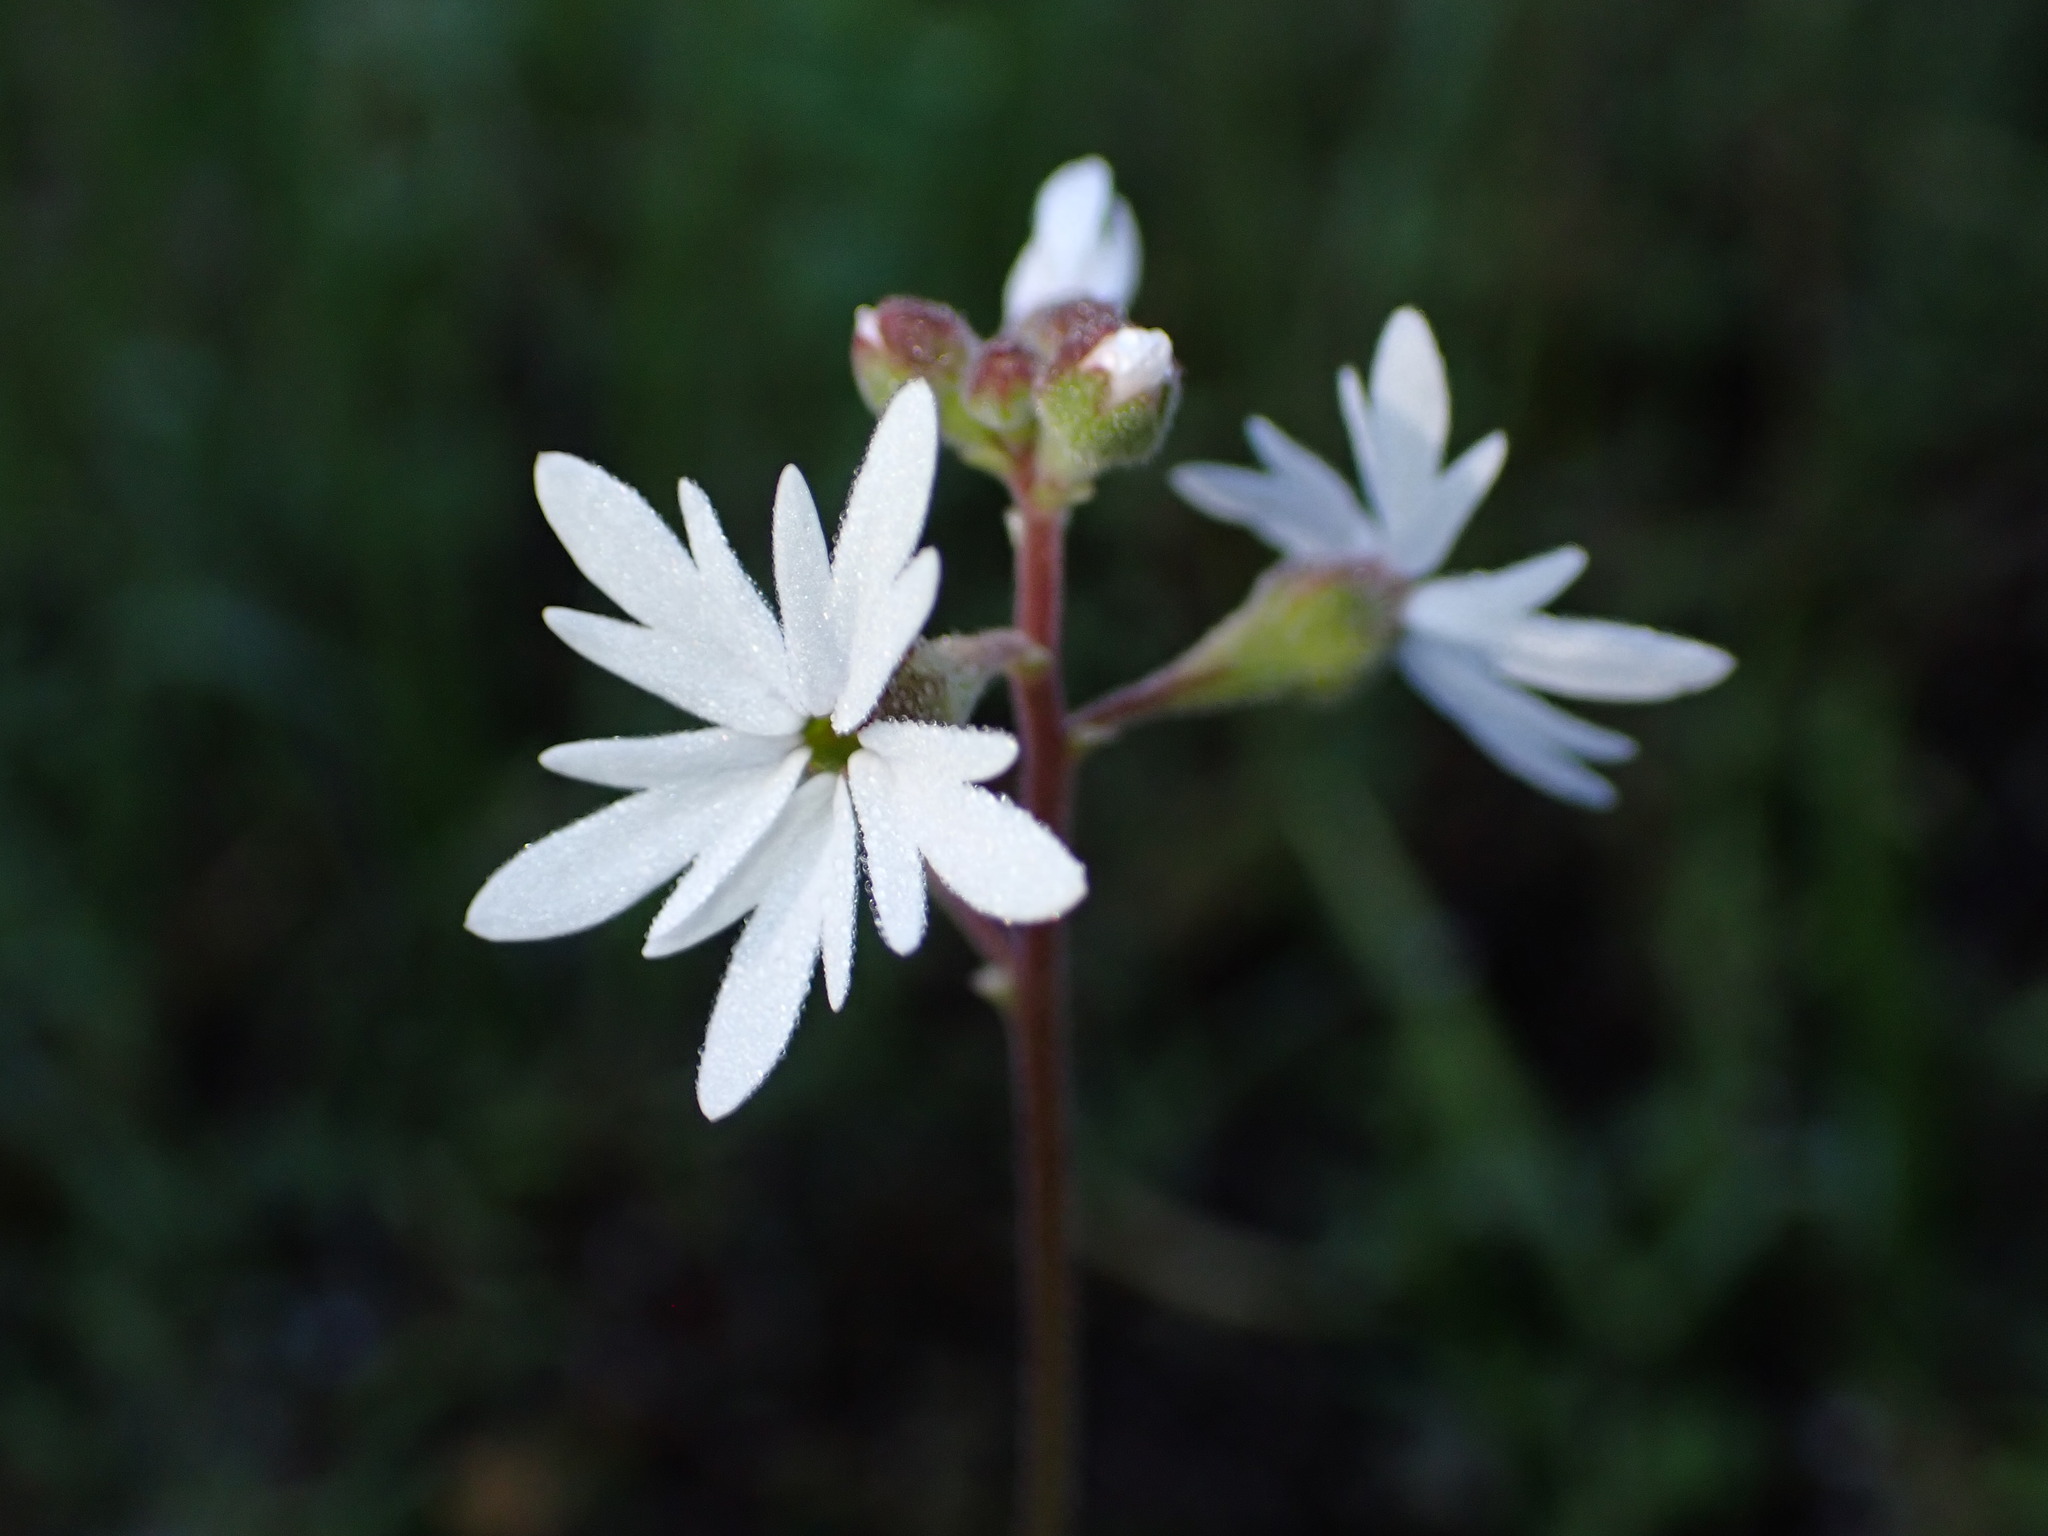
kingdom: Plantae
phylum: Tracheophyta
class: Magnoliopsida
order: Saxifragales
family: Saxifragaceae
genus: Lithophragma
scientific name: Lithophragma parviflorum
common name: Small-flowered fringe-cup
